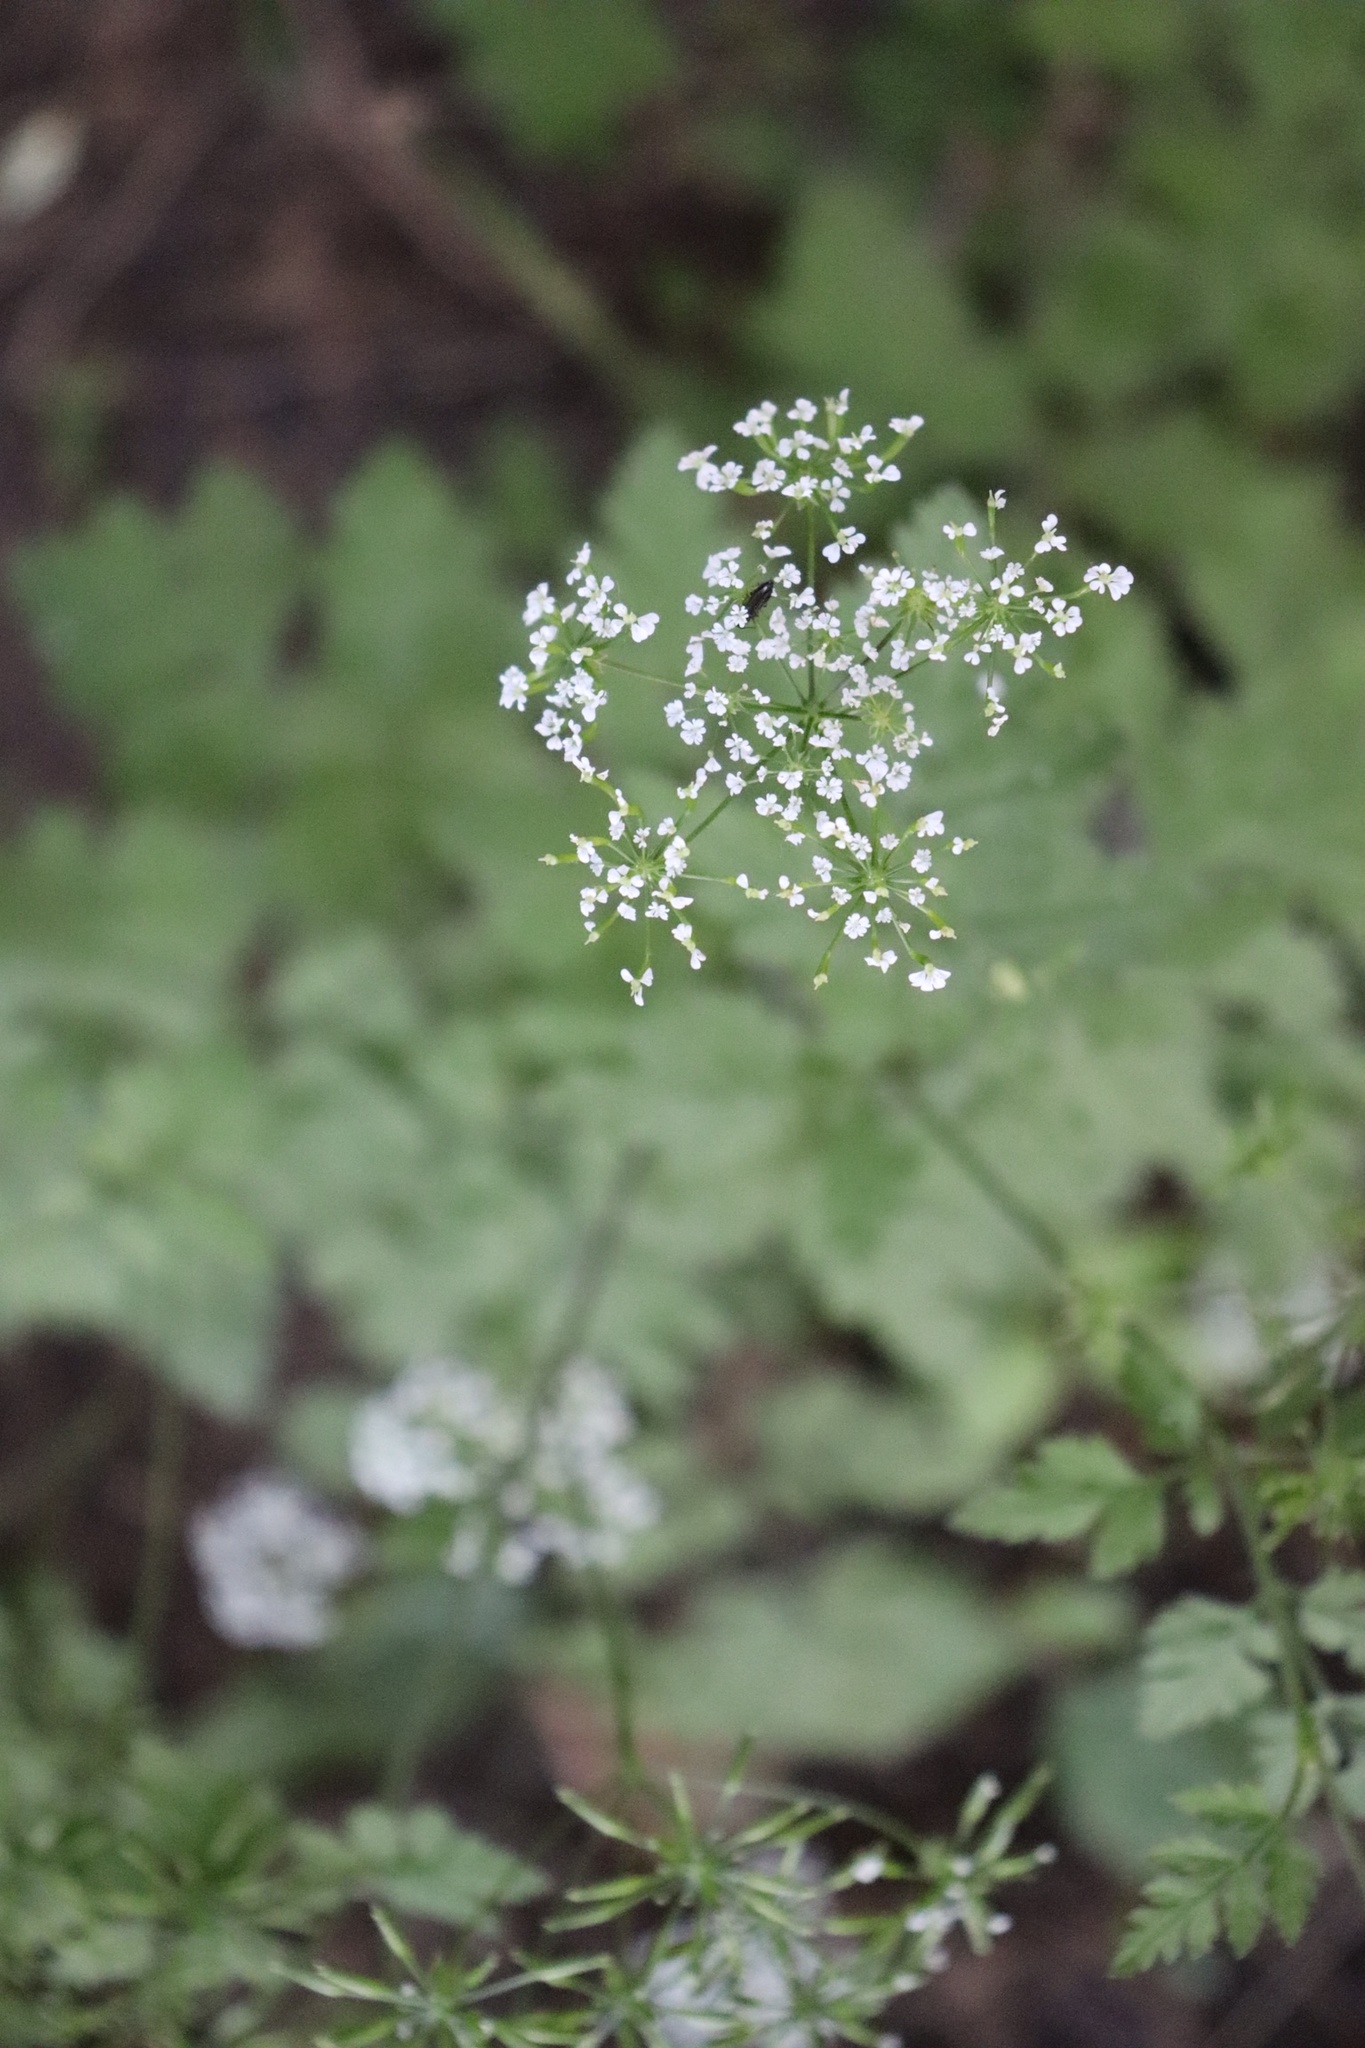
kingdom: Plantae
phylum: Tracheophyta
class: Magnoliopsida
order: Apiales
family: Apiaceae
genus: Anthriscus
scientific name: Anthriscus sylvestris
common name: Cow parsley
